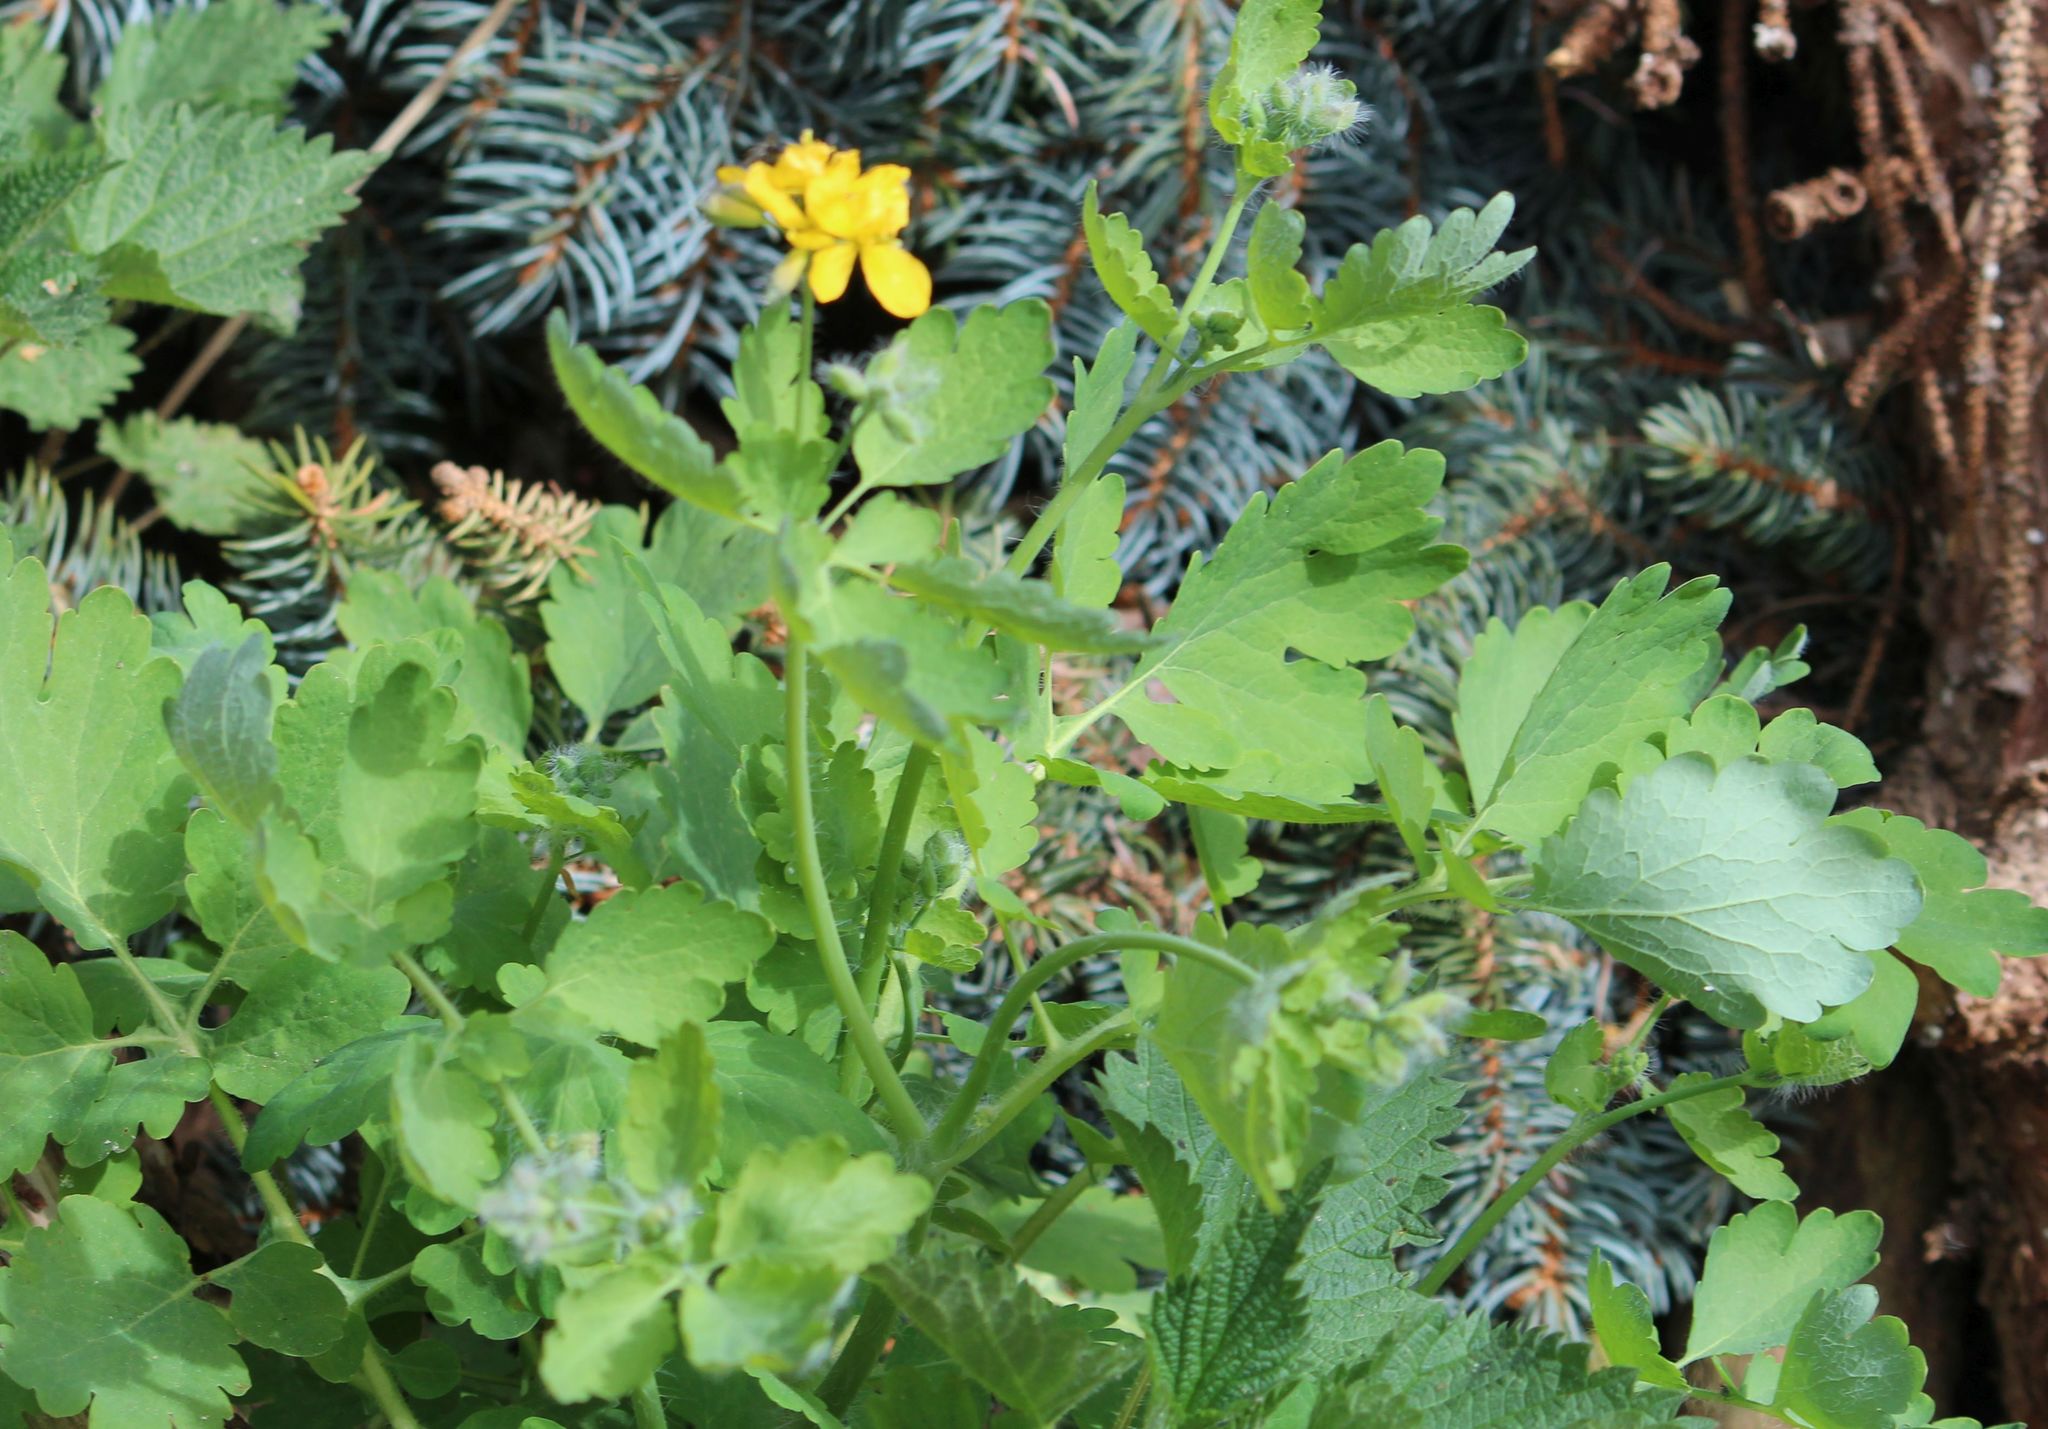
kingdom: Plantae
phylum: Tracheophyta
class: Magnoliopsida
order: Ranunculales
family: Papaveraceae
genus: Chelidonium
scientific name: Chelidonium majus
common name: Greater celandine
